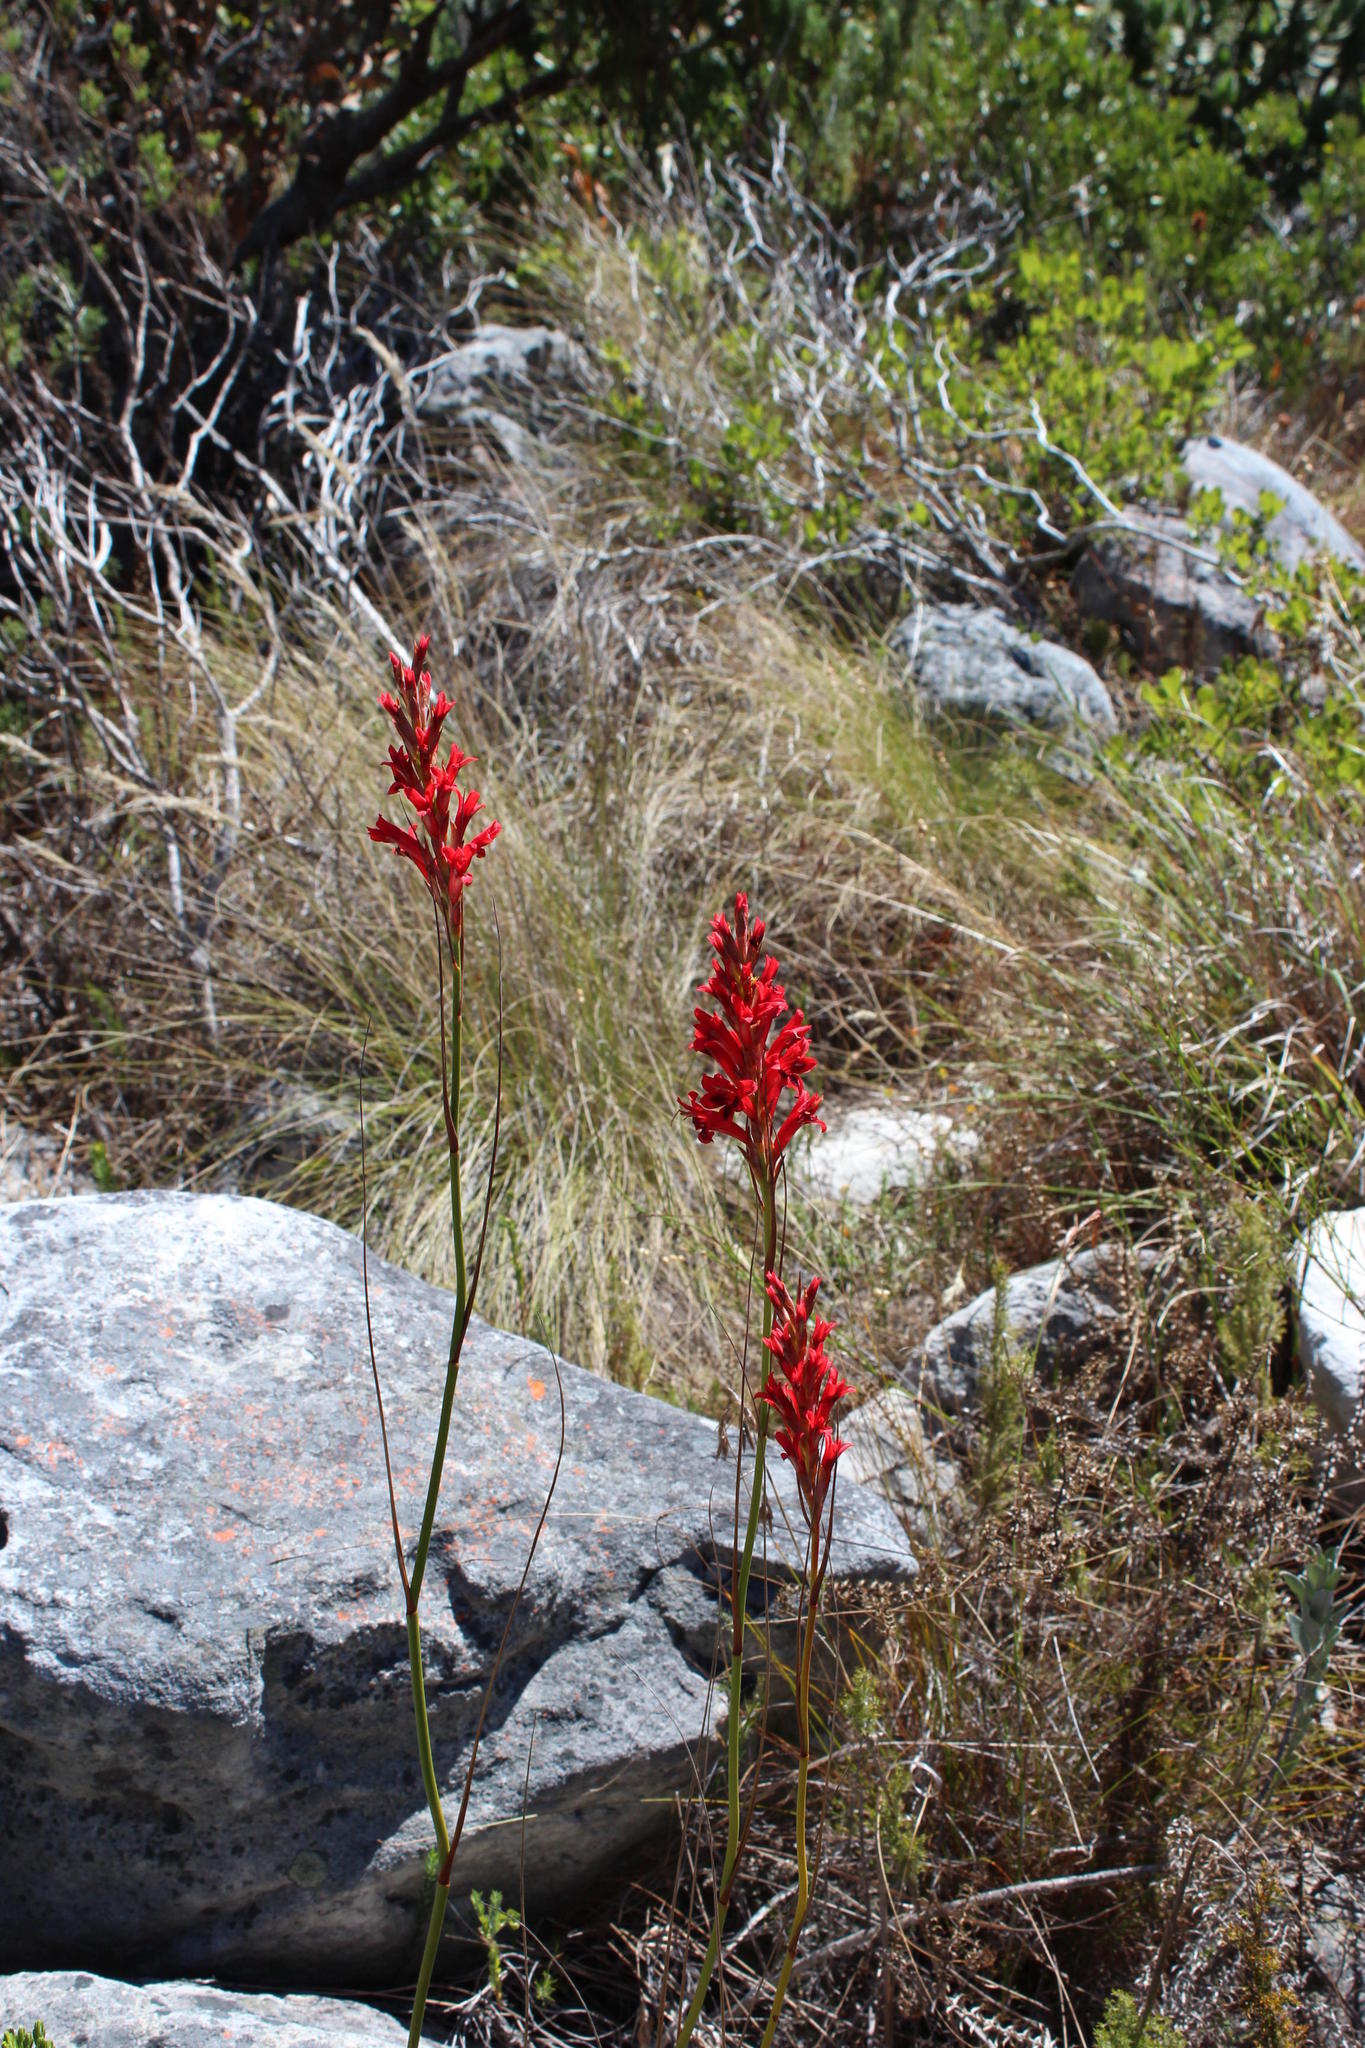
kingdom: Plantae
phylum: Tracheophyta
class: Liliopsida
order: Asparagales
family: Iridaceae
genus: Tritoniopsis
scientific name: Tritoniopsis triticea
